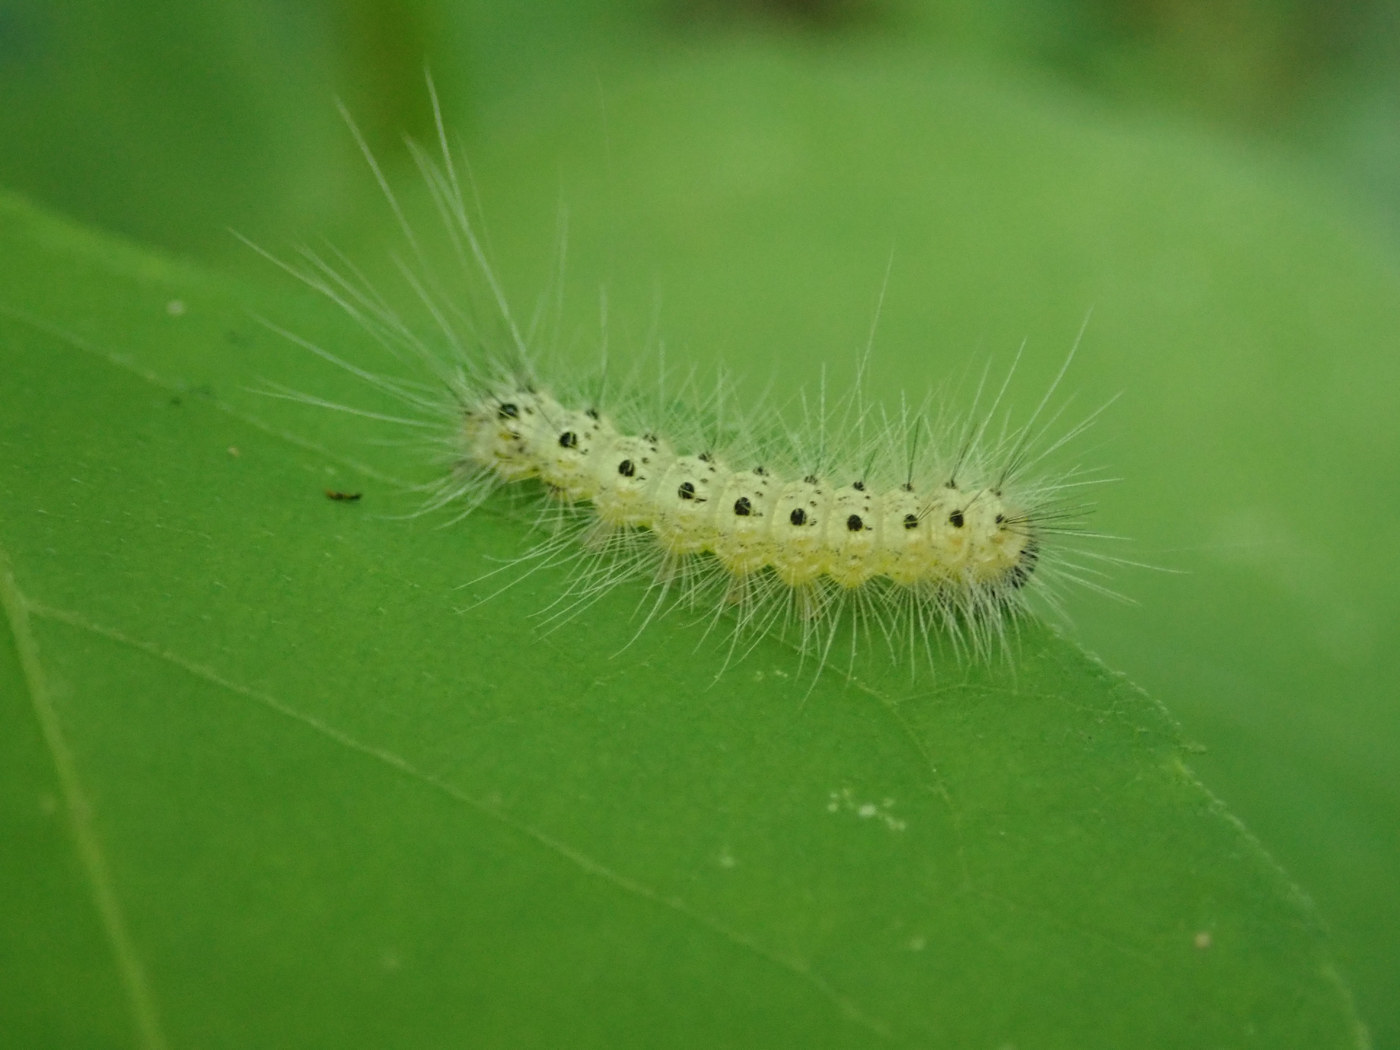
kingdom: Animalia
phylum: Arthropoda
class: Insecta
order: Lepidoptera
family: Erebidae
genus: Hyphantria
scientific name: Hyphantria cunea
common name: American white moth
